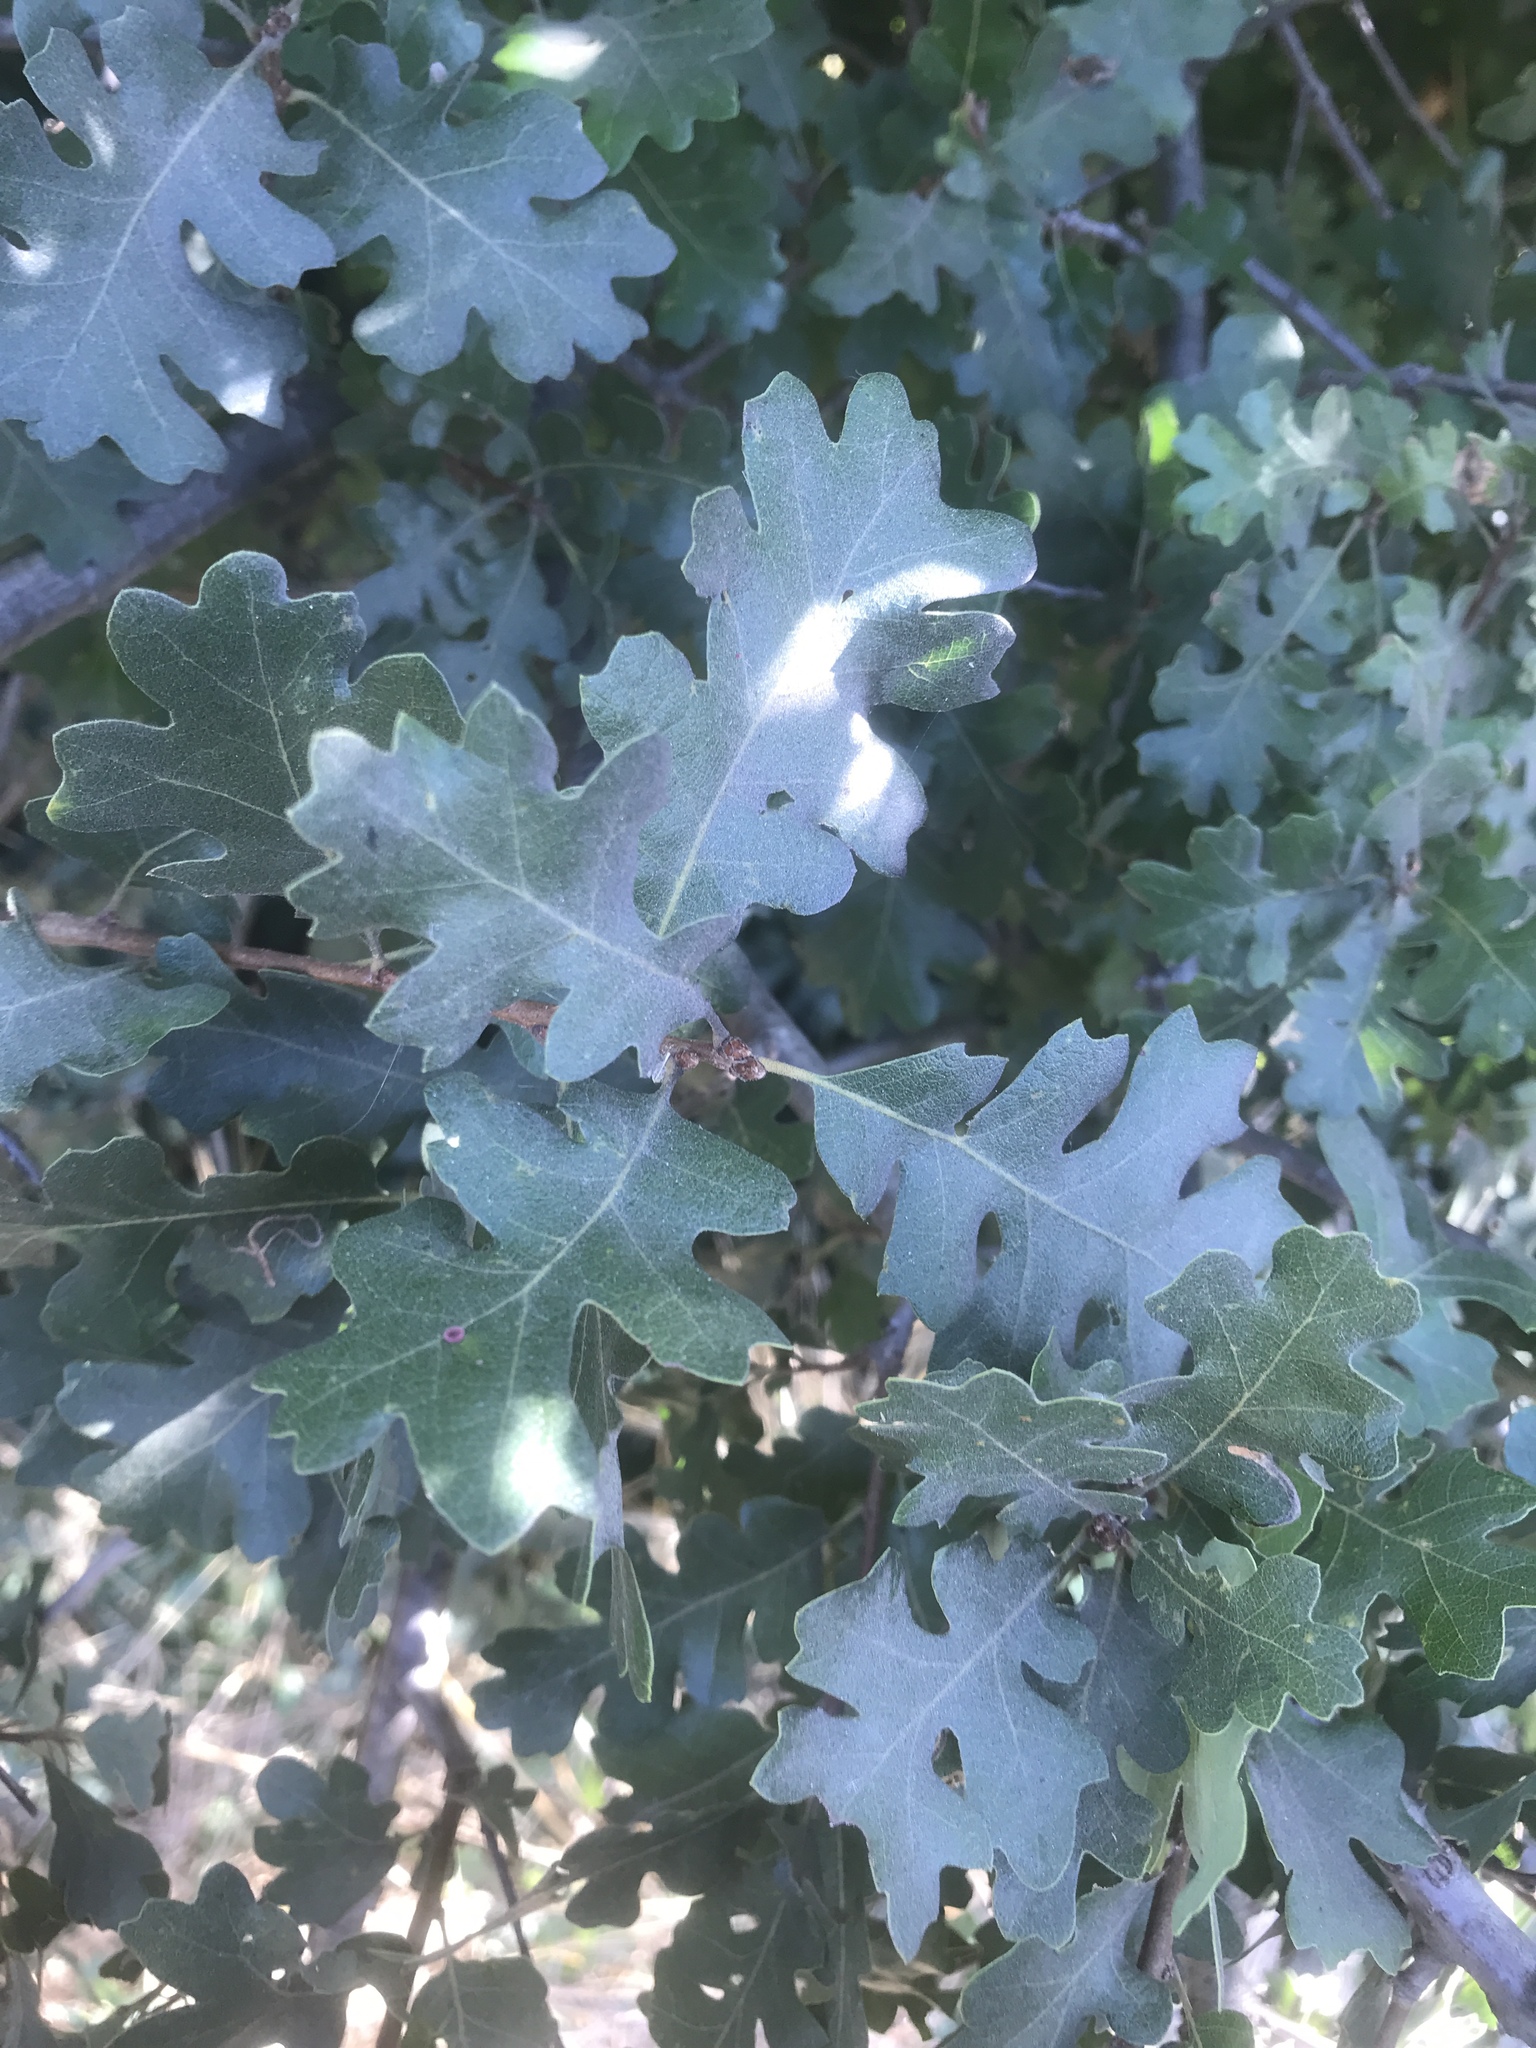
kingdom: Plantae
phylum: Tracheophyta
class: Magnoliopsida
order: Fagales
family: Fagaceae
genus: Quercus
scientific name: Quercus lobata
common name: Valley oak
